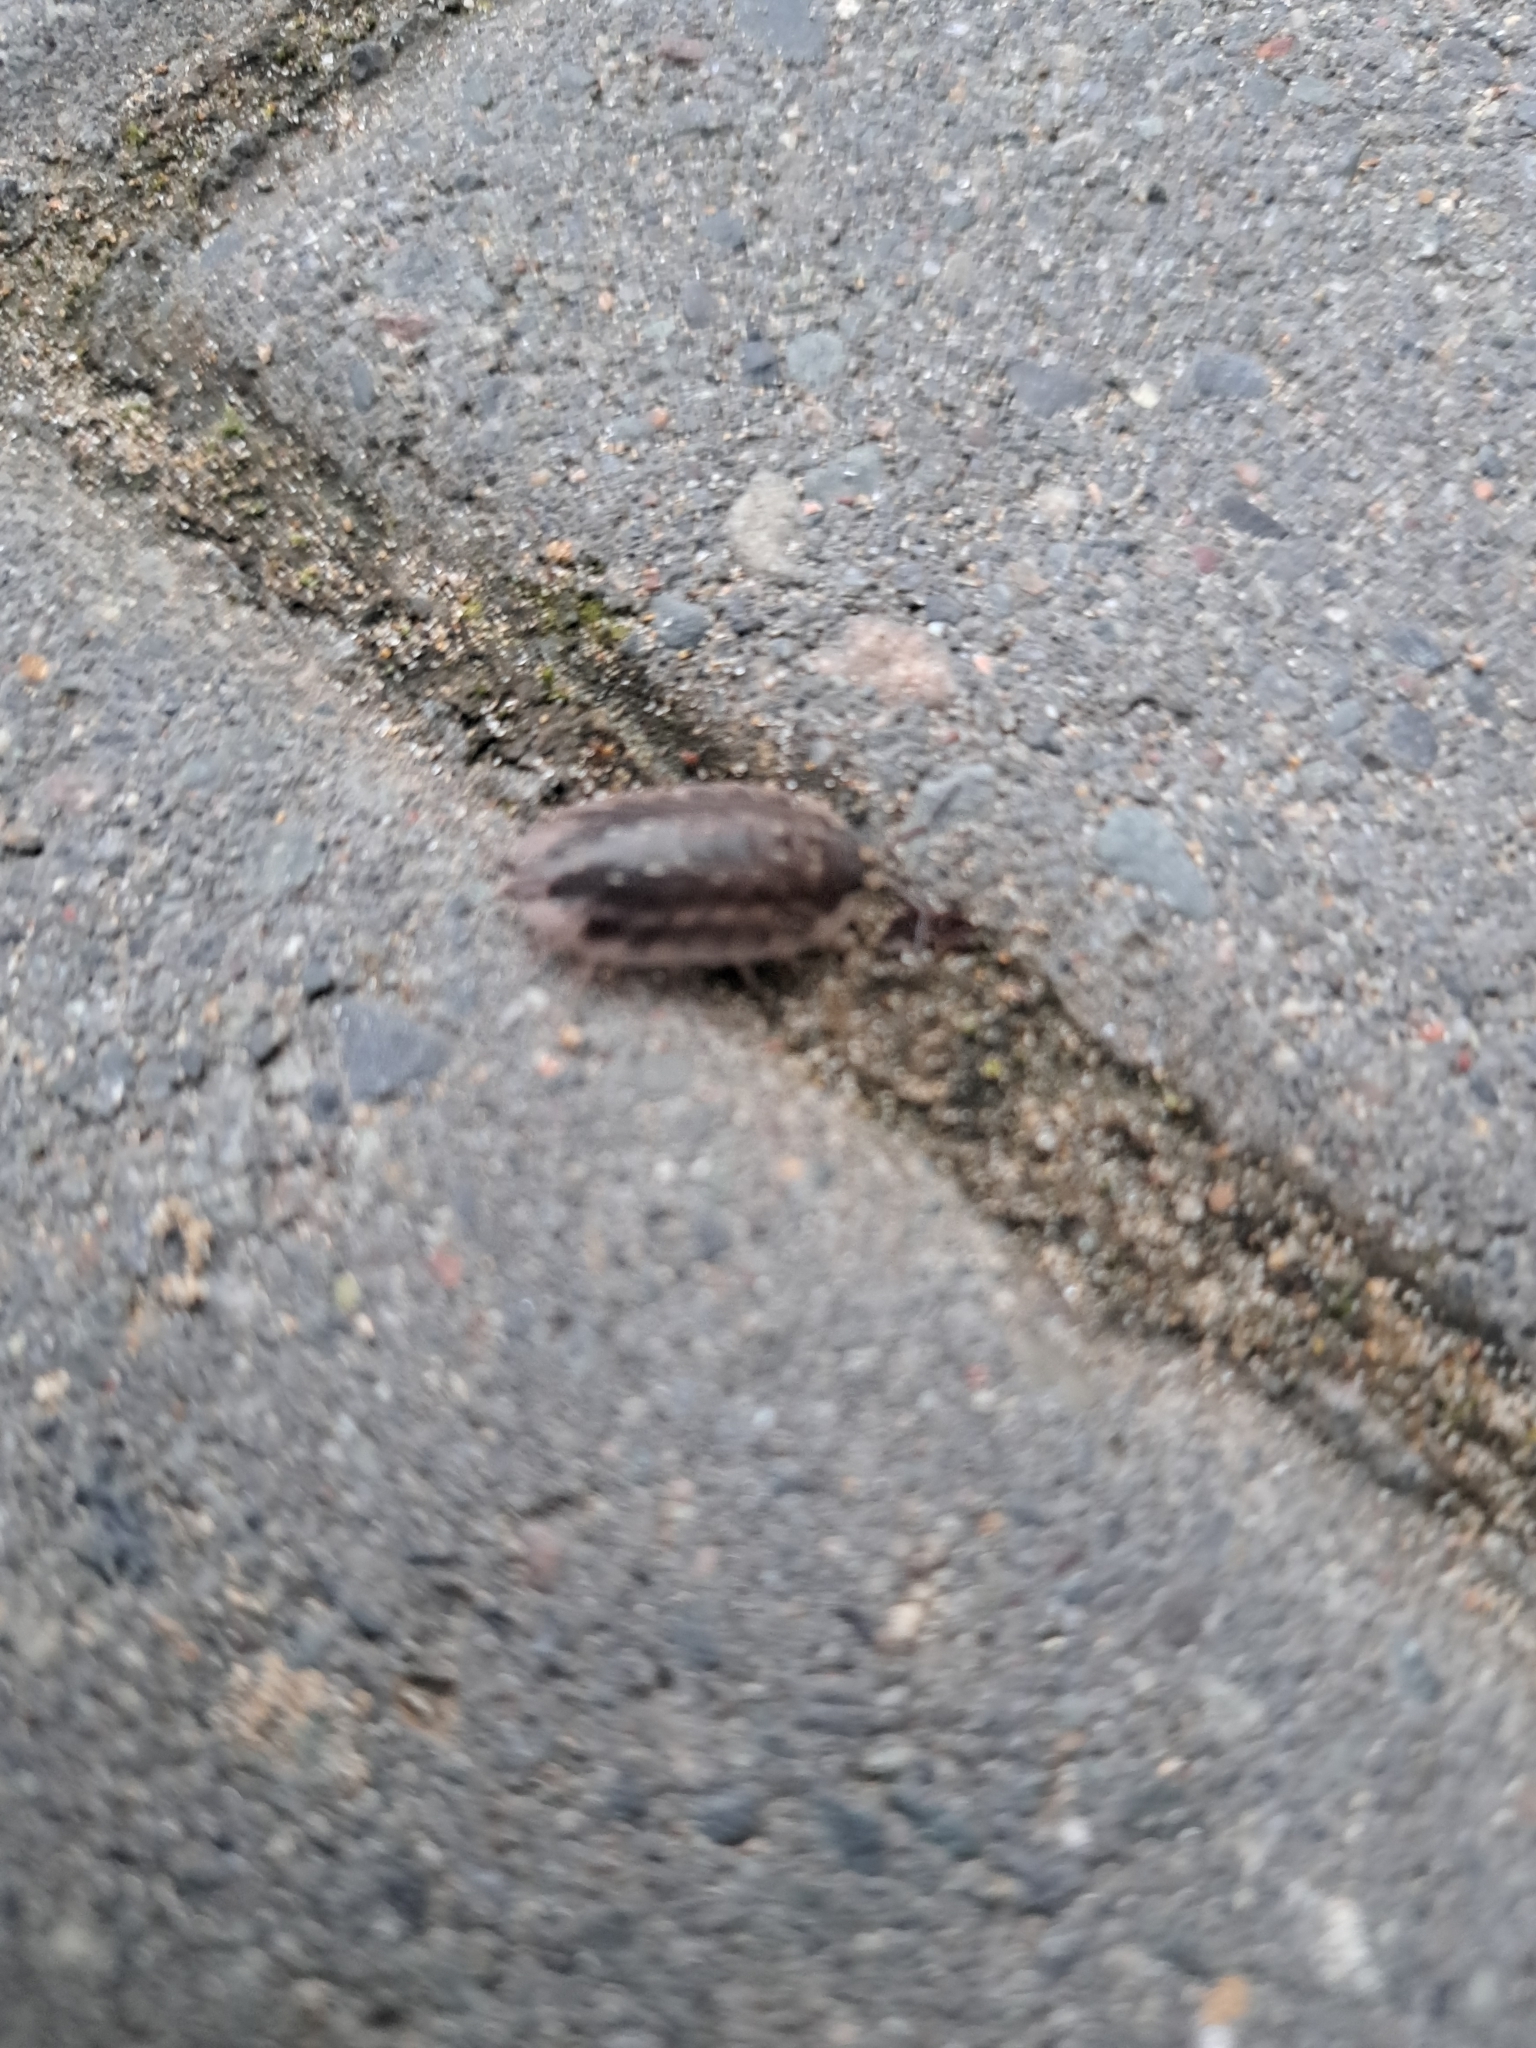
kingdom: Animalia
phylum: Arthropoda
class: Malacostraca
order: Isopoda
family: Oniscidae
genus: Oniscus
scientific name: Oniscus asellus
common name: Common shiny woodlouse
